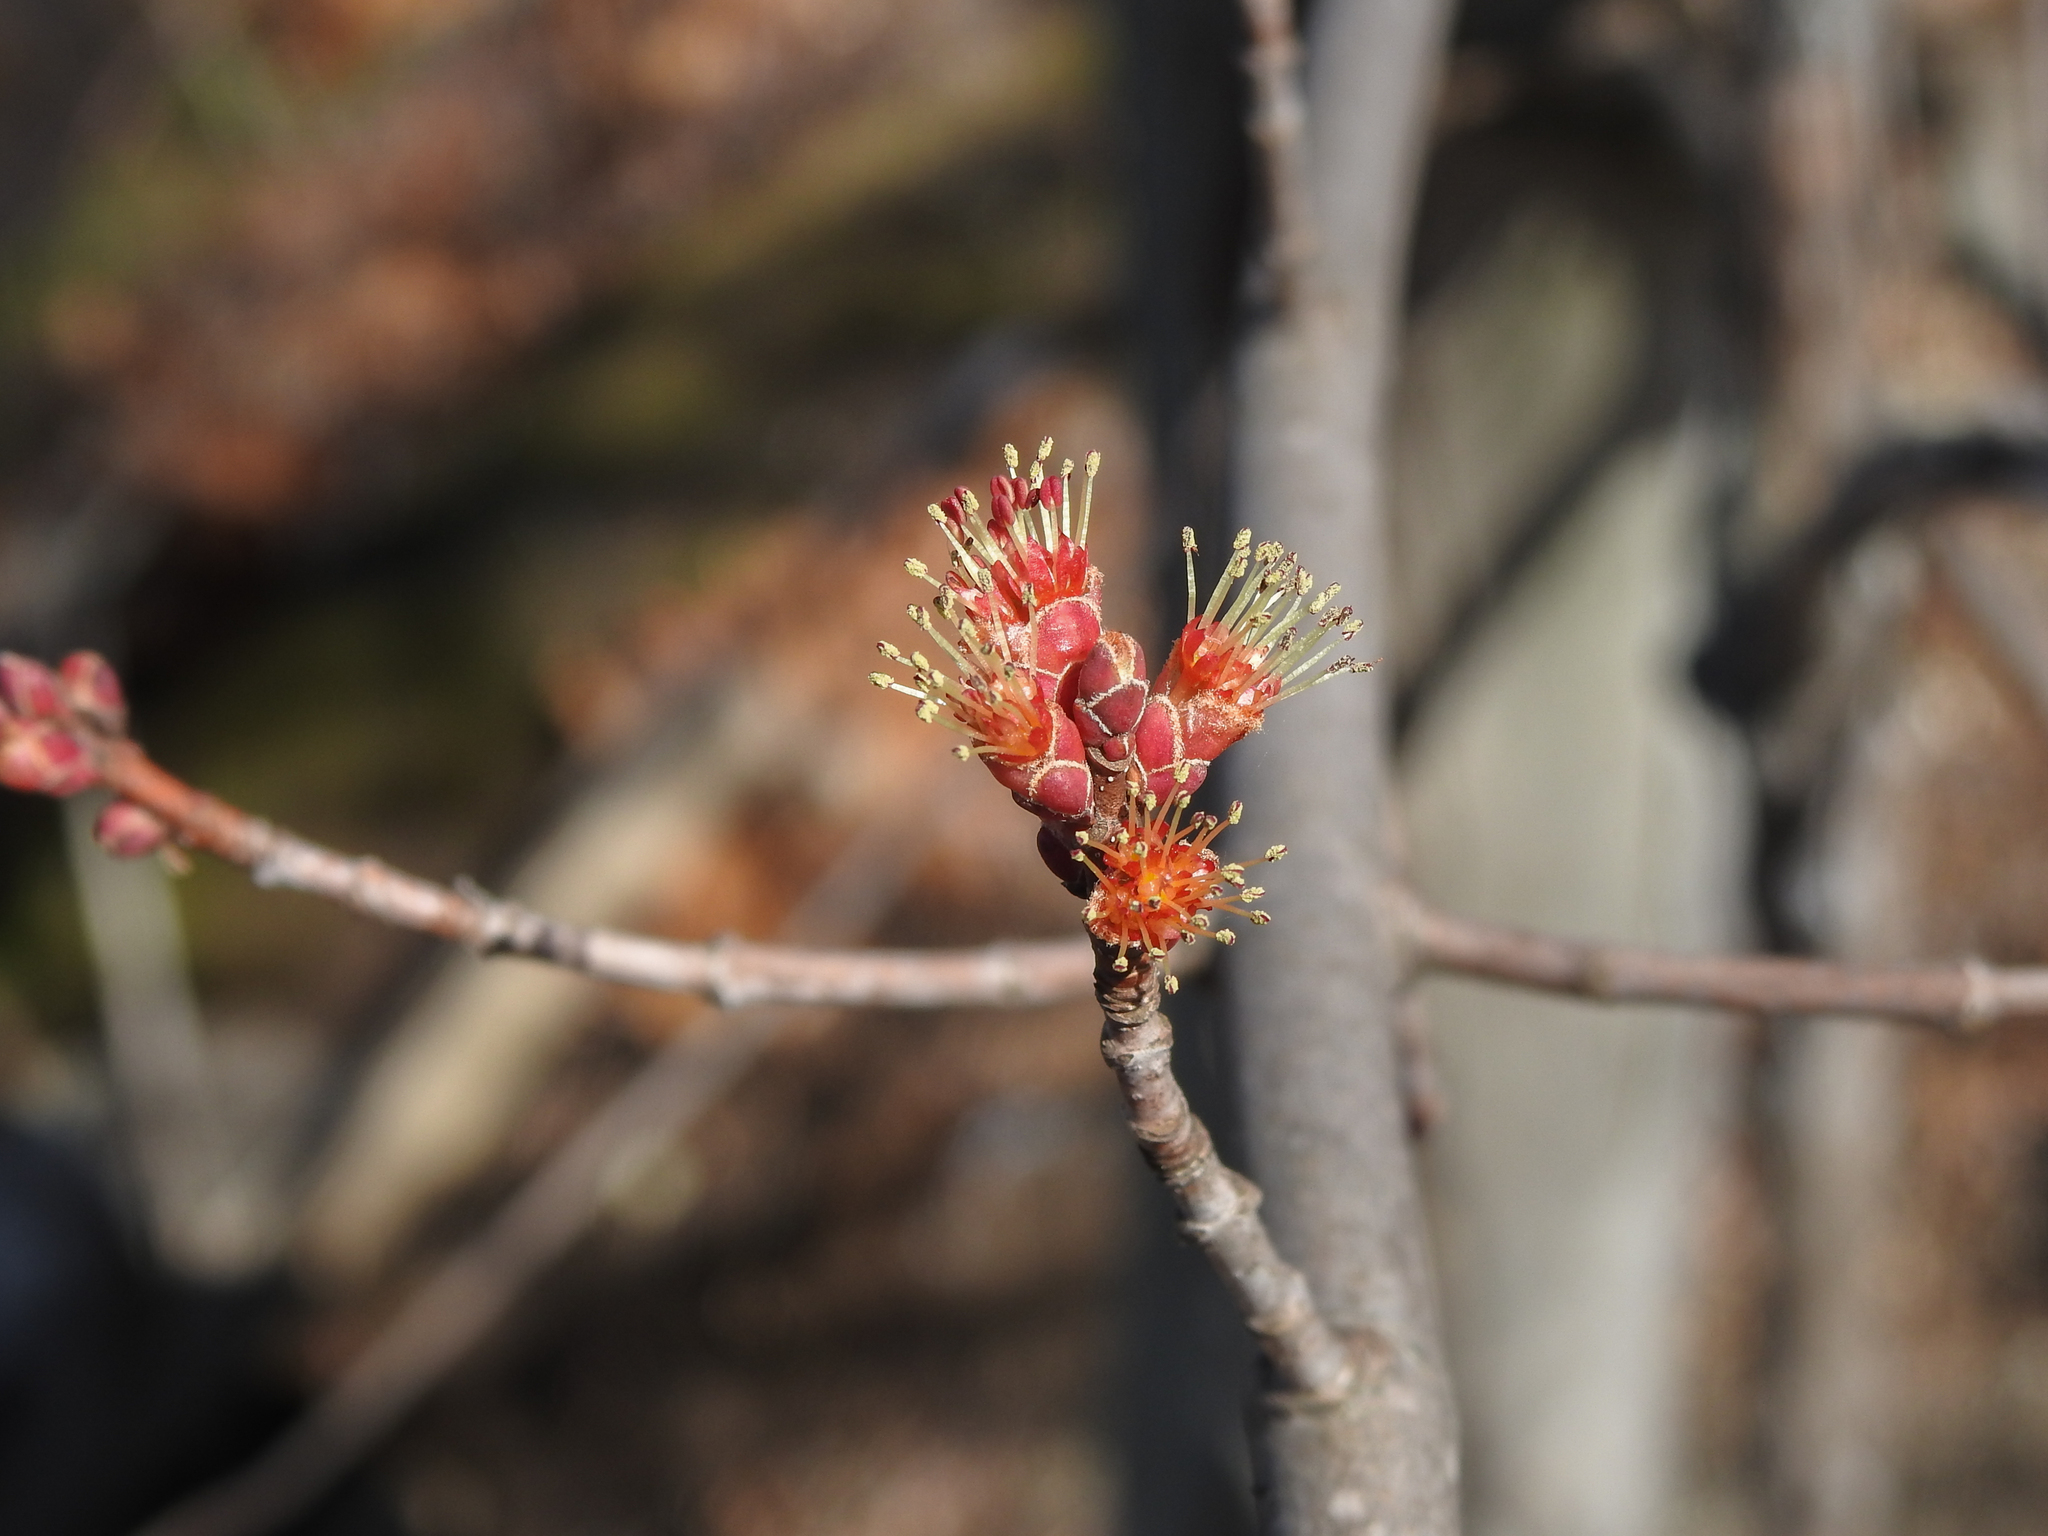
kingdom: Plantae
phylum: Tracheophyta
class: Magnoliopsida
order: Sapindales
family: Sapindaceae
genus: Acer
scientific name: Acer rubrum
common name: Red maple
